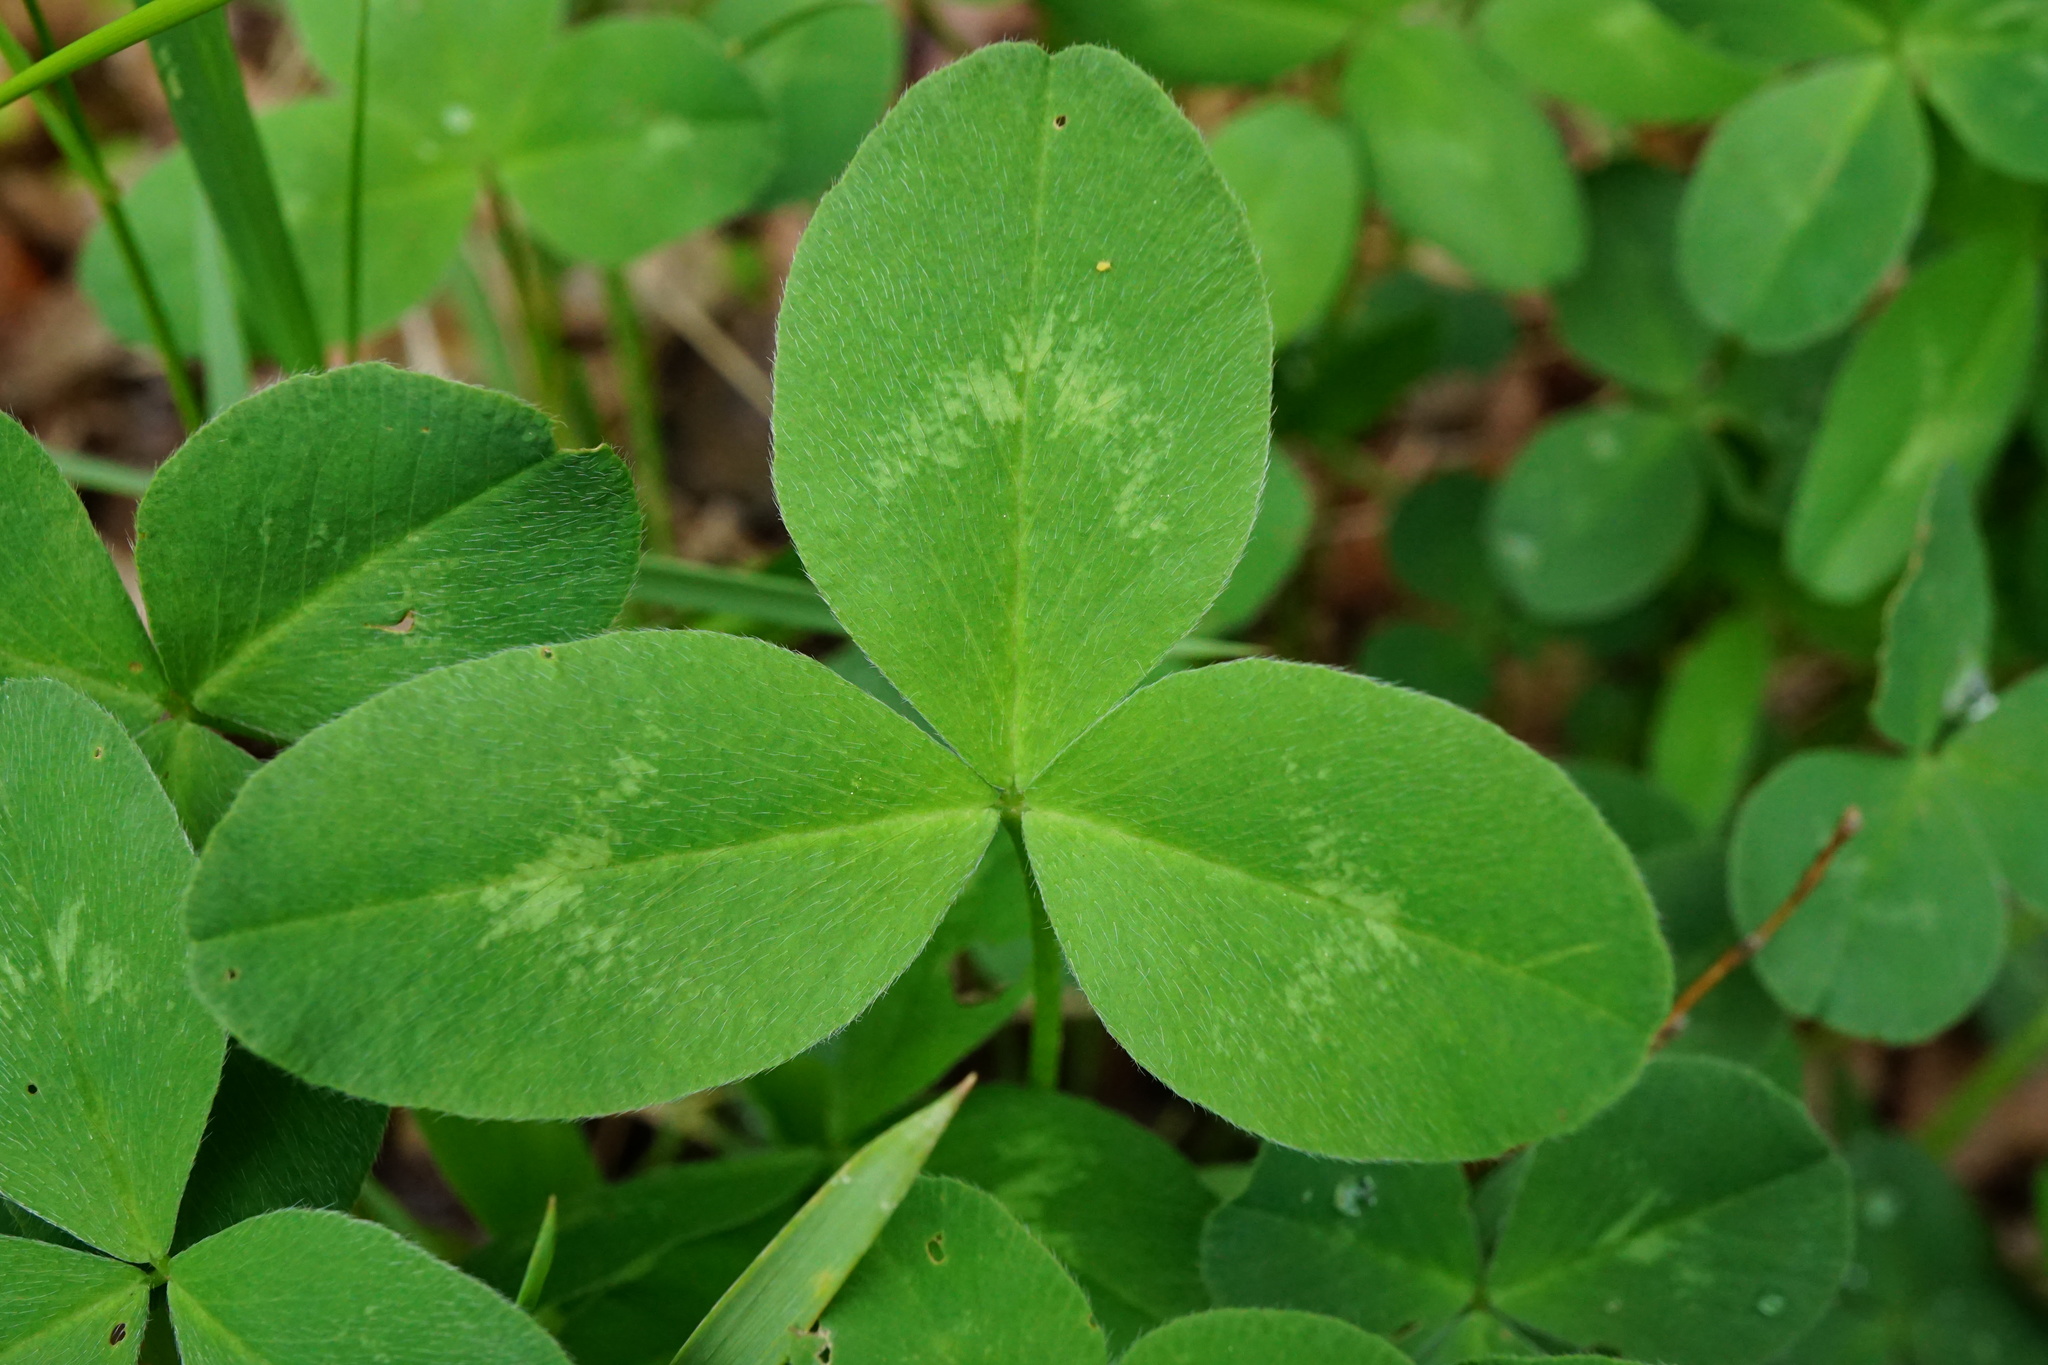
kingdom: Plantae
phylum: Tracheophyta
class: Magnoliopsida
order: Fabales
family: Fabaceae
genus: Trifolium
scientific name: Trifolium pratense
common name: Red clover
